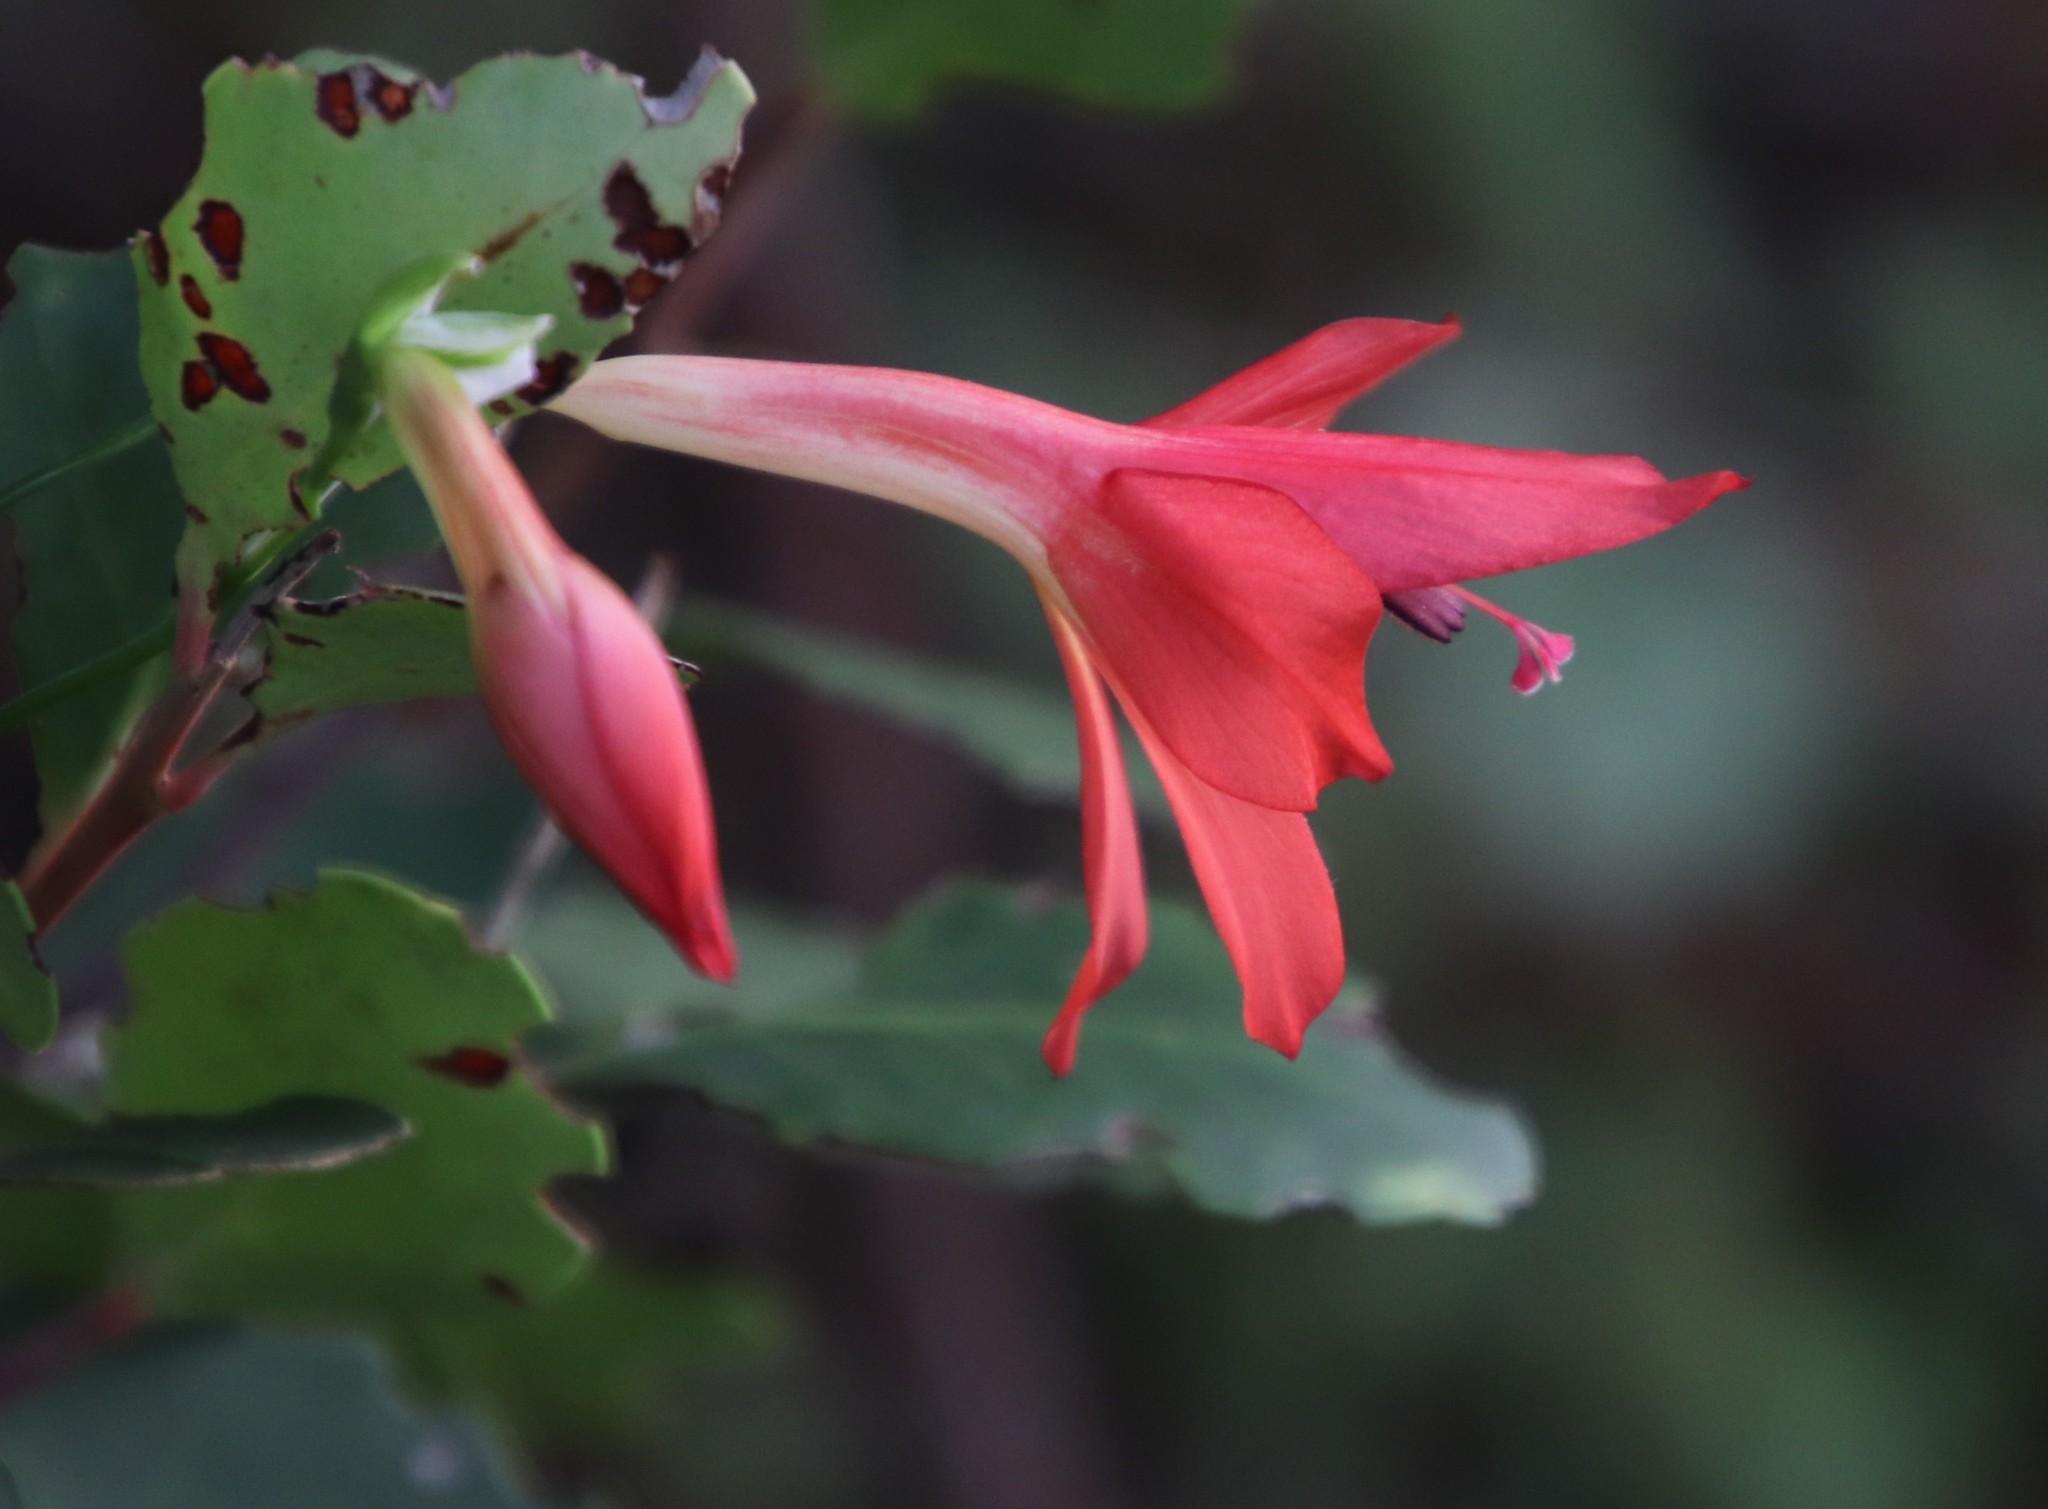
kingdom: Plantae
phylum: Tracheophyta
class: Liliopsida
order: Asparagales
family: Iridaceae
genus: Gladiolus
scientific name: Gladiolus priorii
